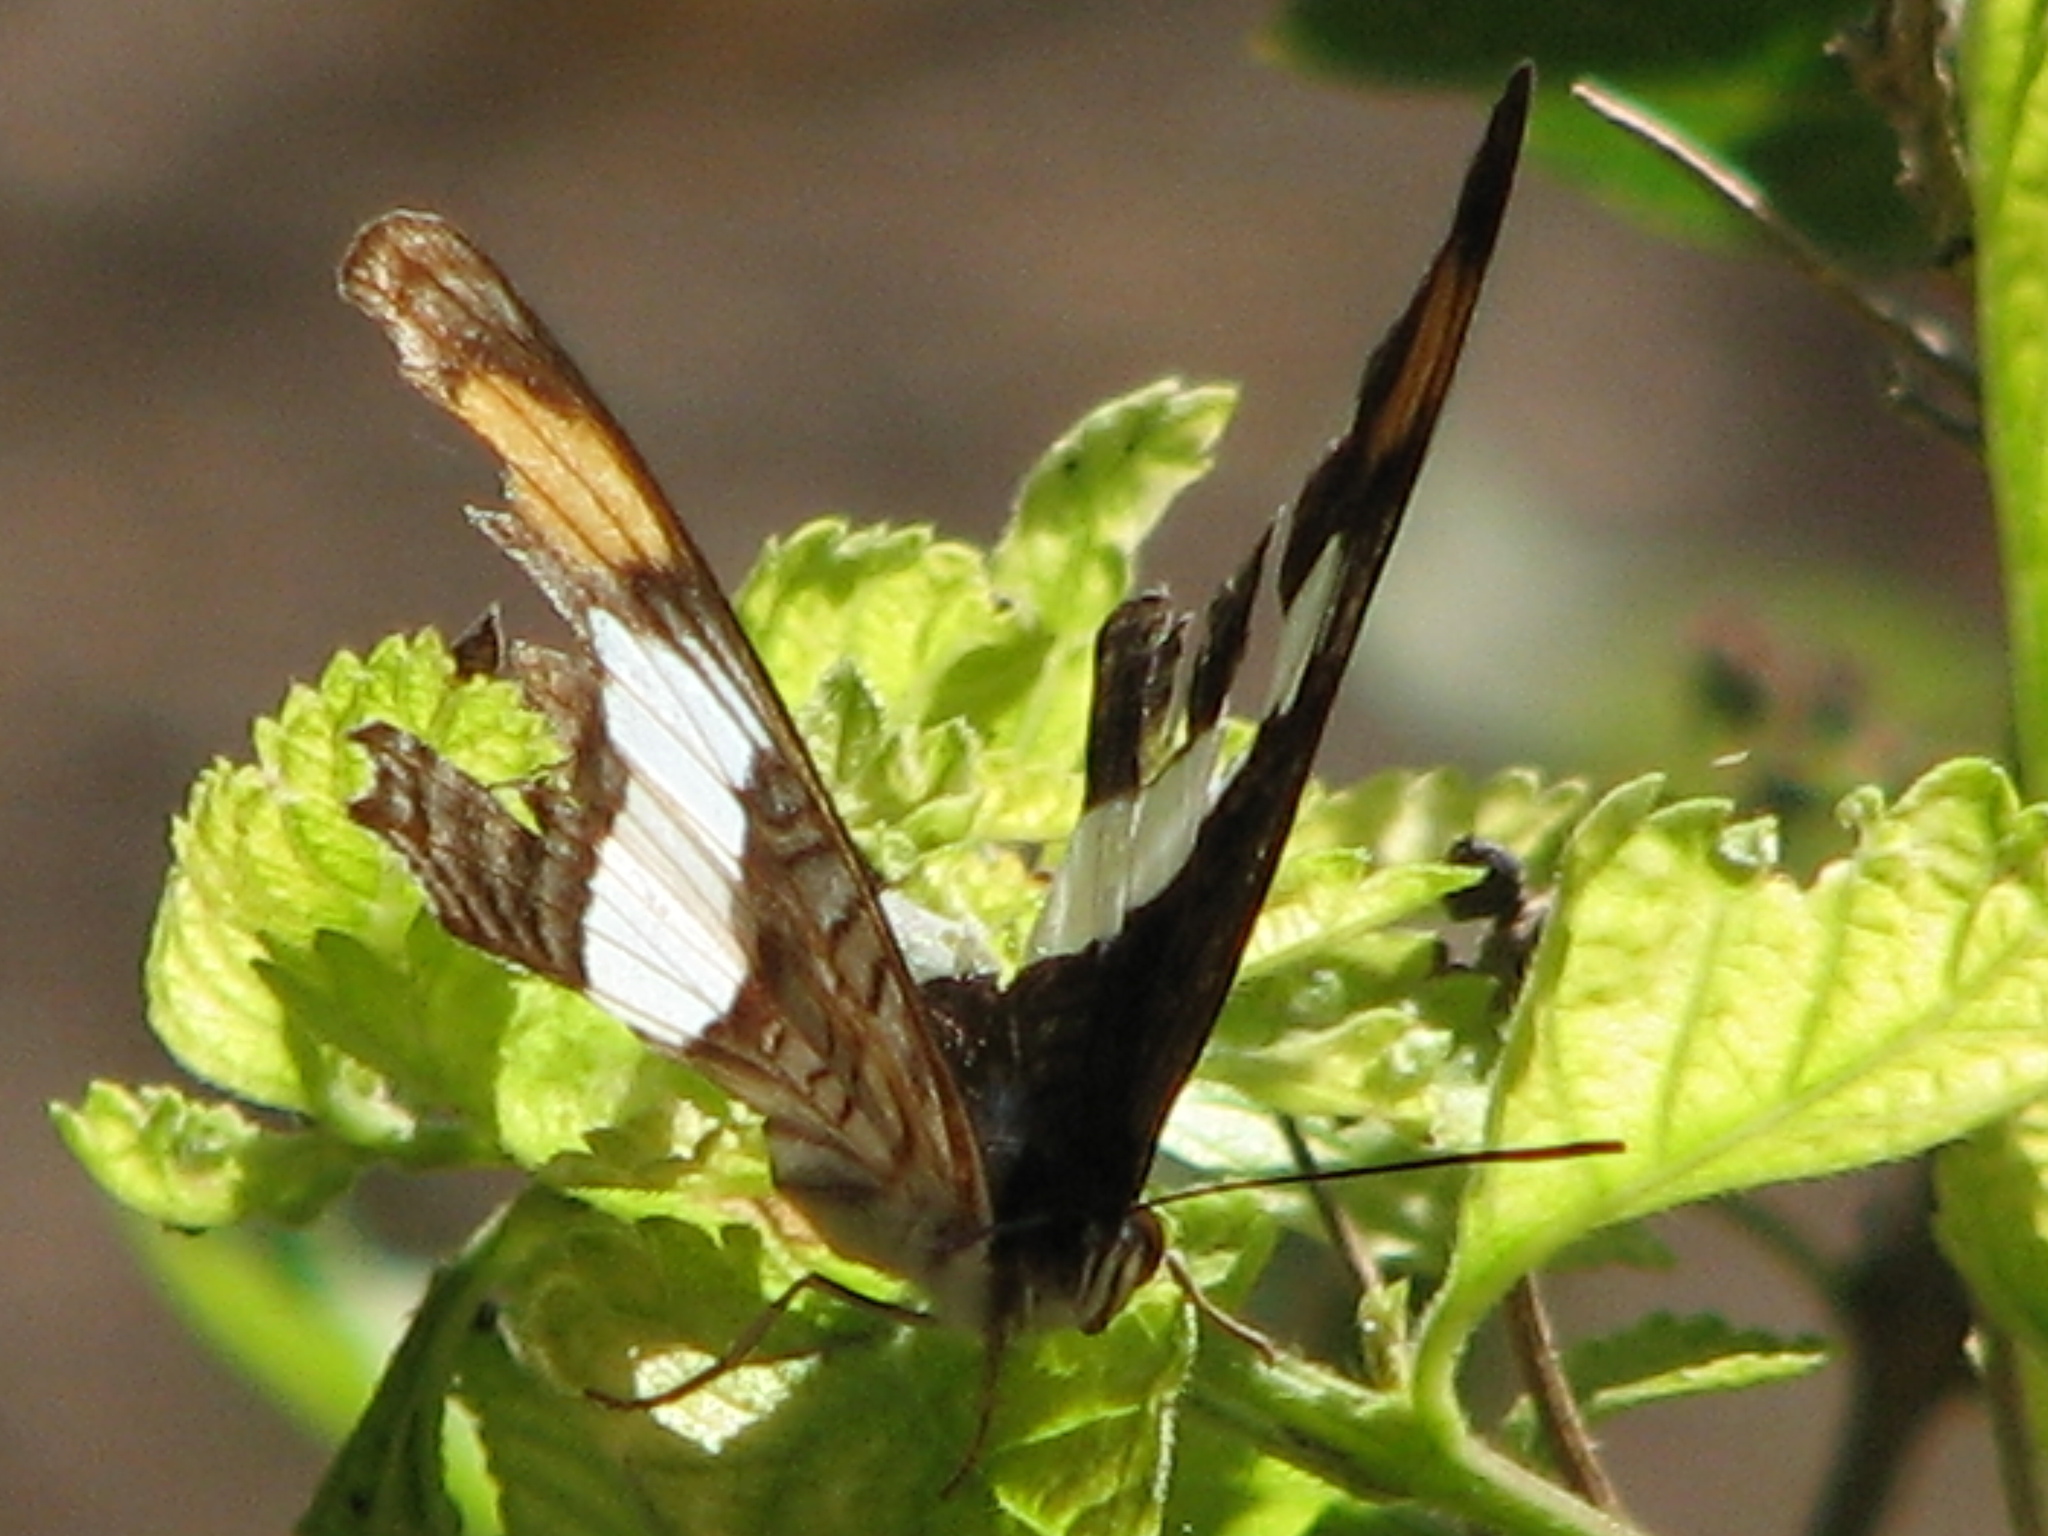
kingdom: Animalia
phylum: Arthropoda
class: Insecta
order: Lepidoptera
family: Nymphalidae
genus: Limenitis
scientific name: Limenitis Adelpha basiloides
